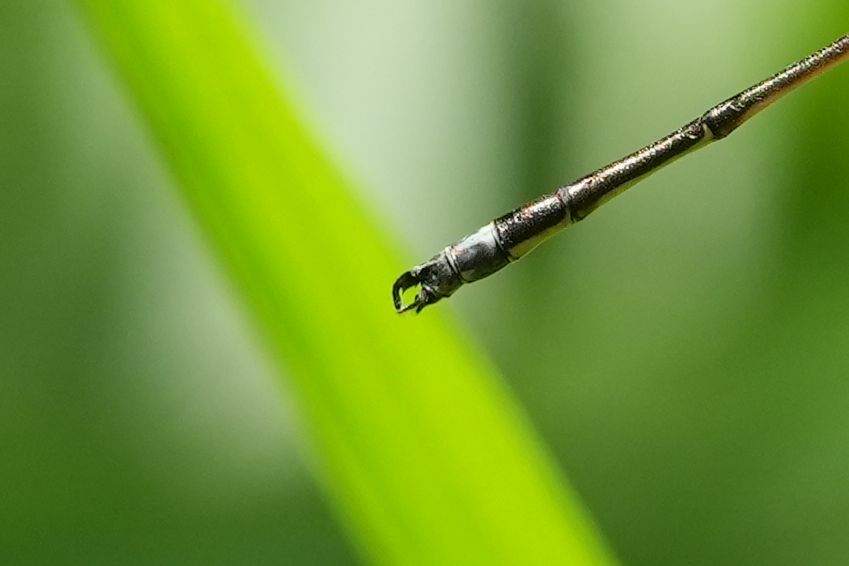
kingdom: Animalia
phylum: Arthropoda
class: Insecta
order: Odonata
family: Lestidae
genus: Lestes
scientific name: Lestes rectangularis
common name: Slender spreadwing
